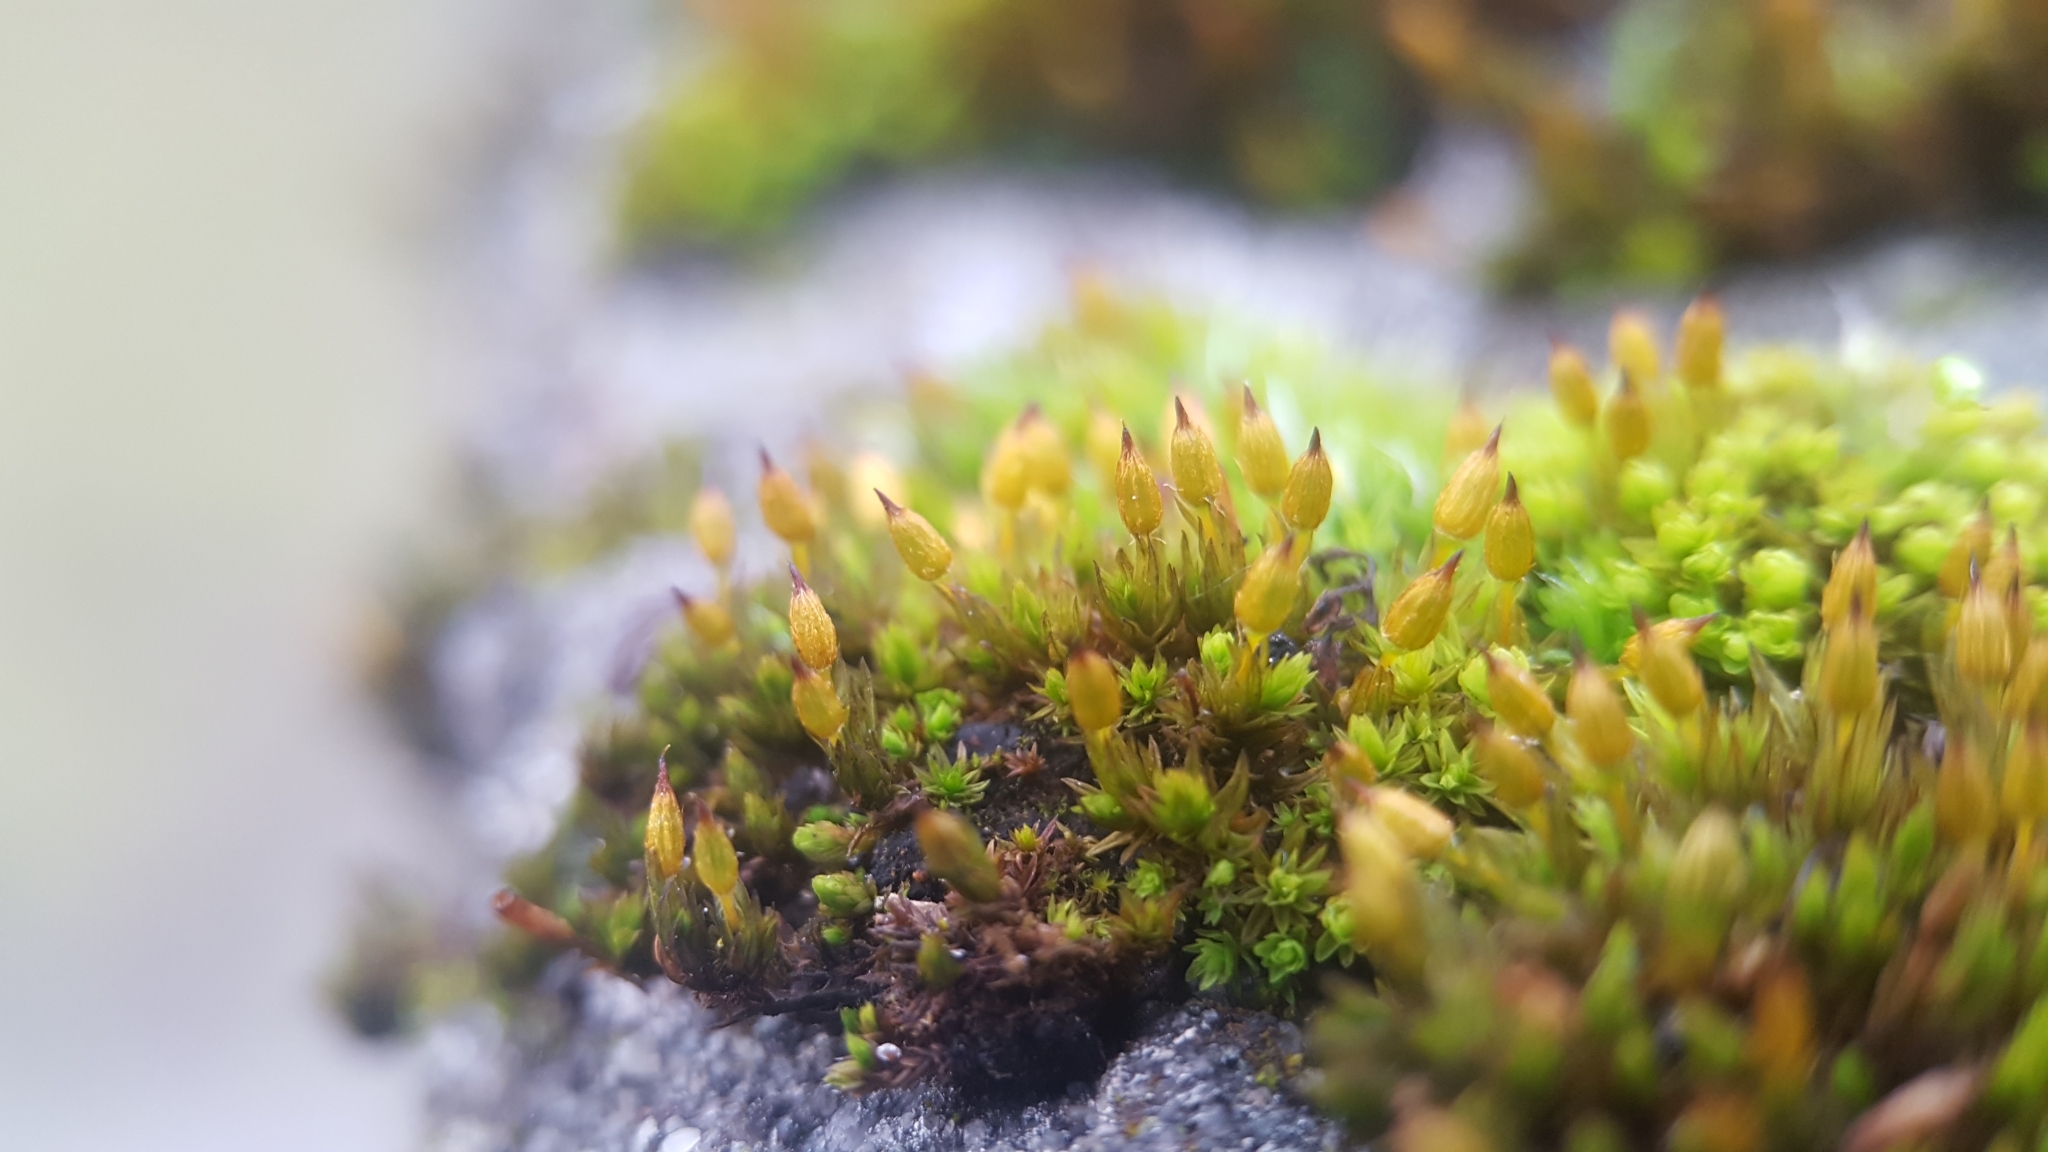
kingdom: Plantae
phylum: Bryophyta
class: Bryopsida
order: Orthotrichales
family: Orthotrichaceae
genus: Orthotrichum
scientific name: Orthotrichum anomalum
